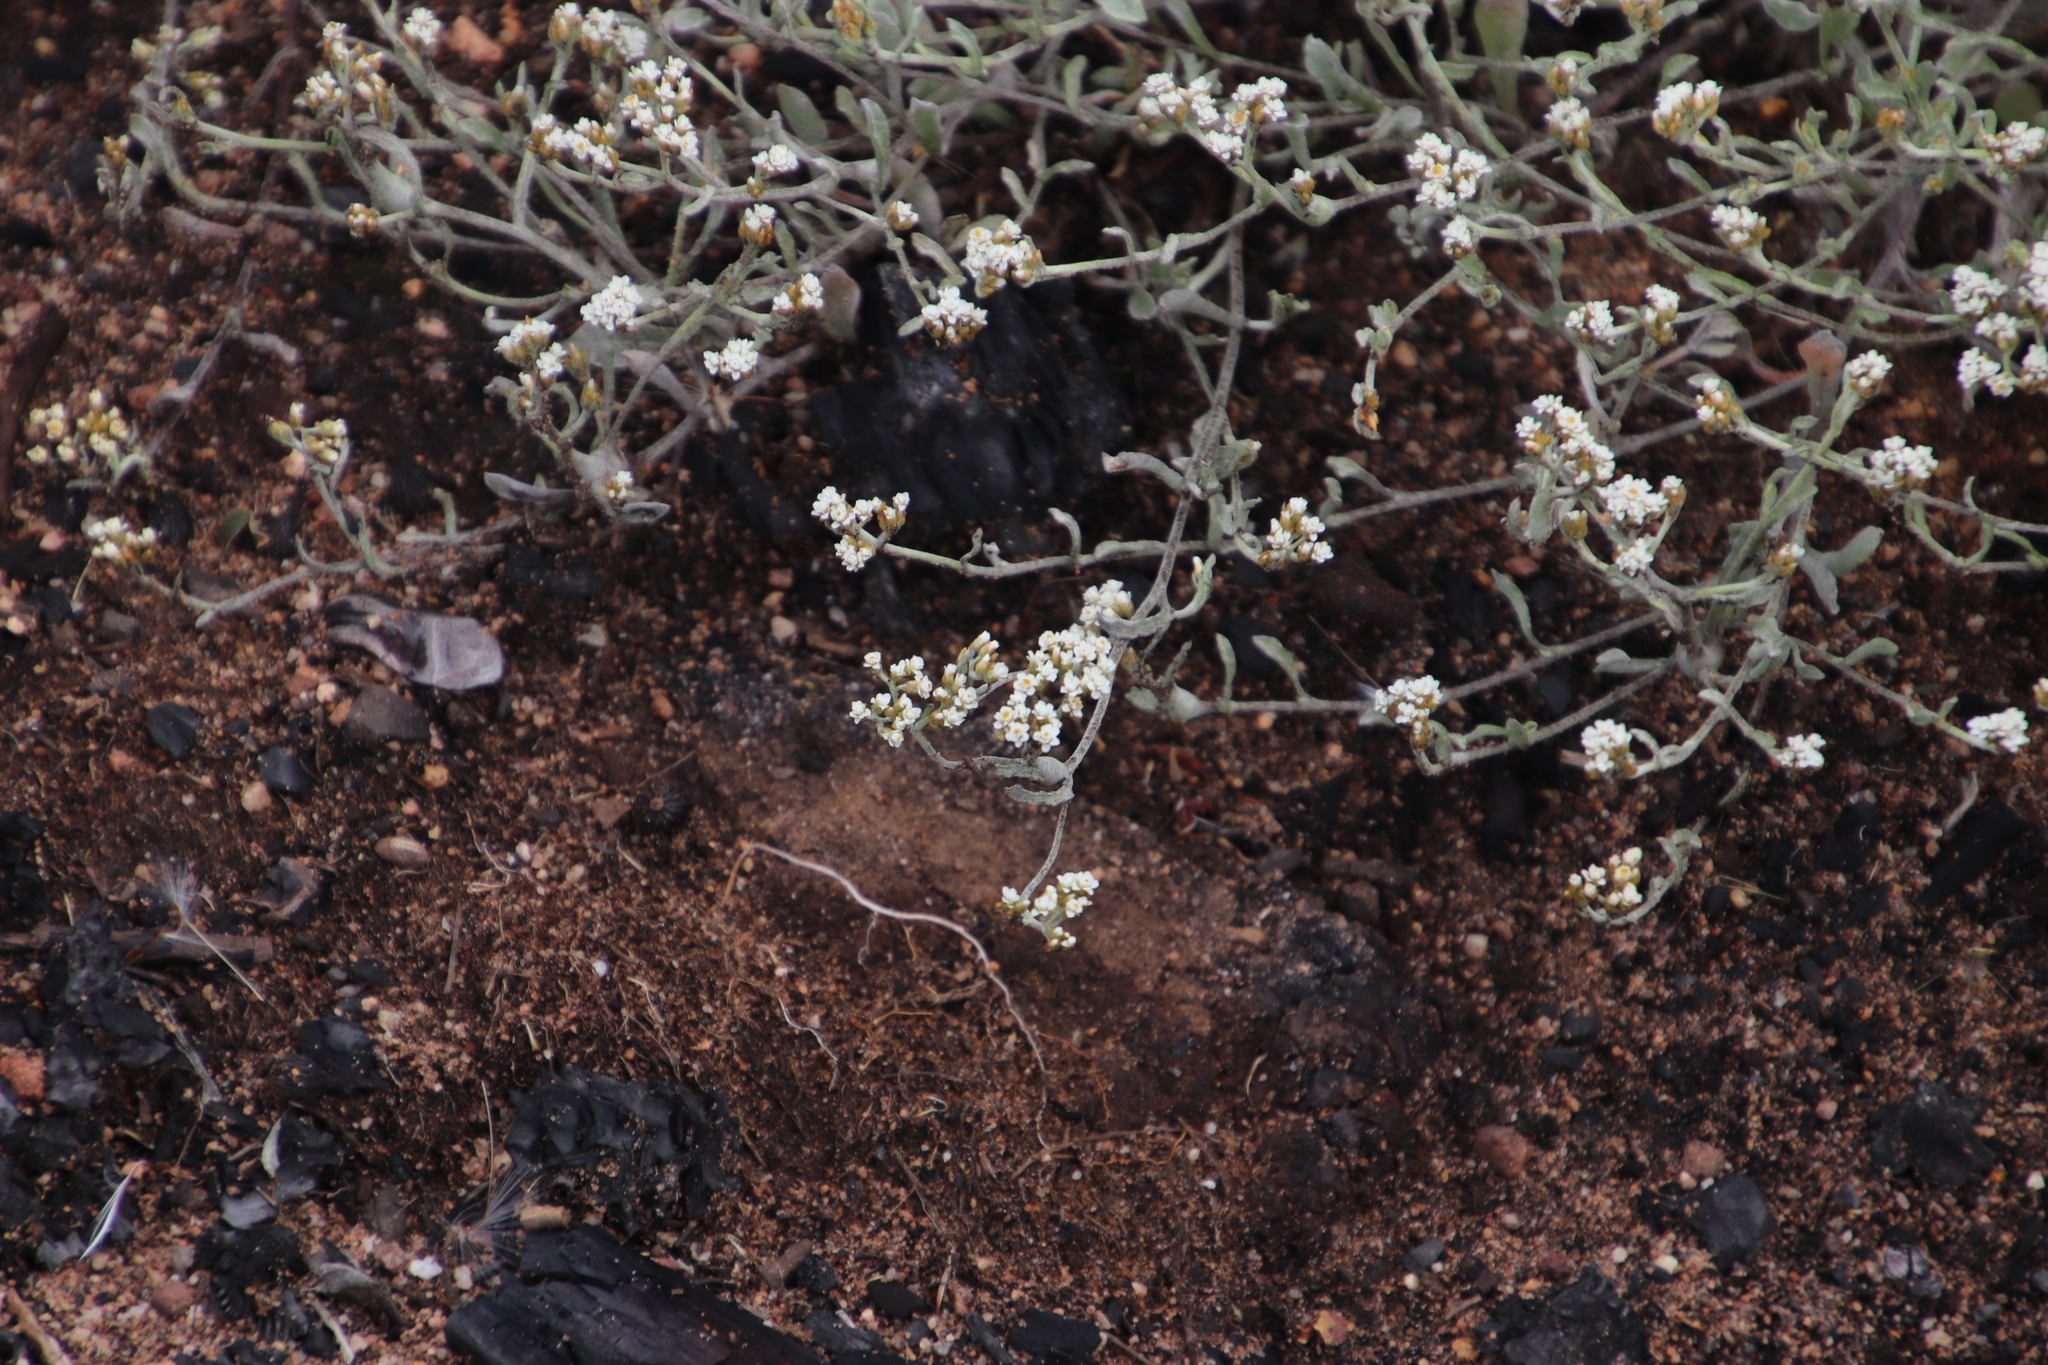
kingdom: Plantae
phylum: Tracheophyta
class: Magnoliopsida
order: Asterales
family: Asteraceae
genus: Helichrysum
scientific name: Helichrysum indicum
